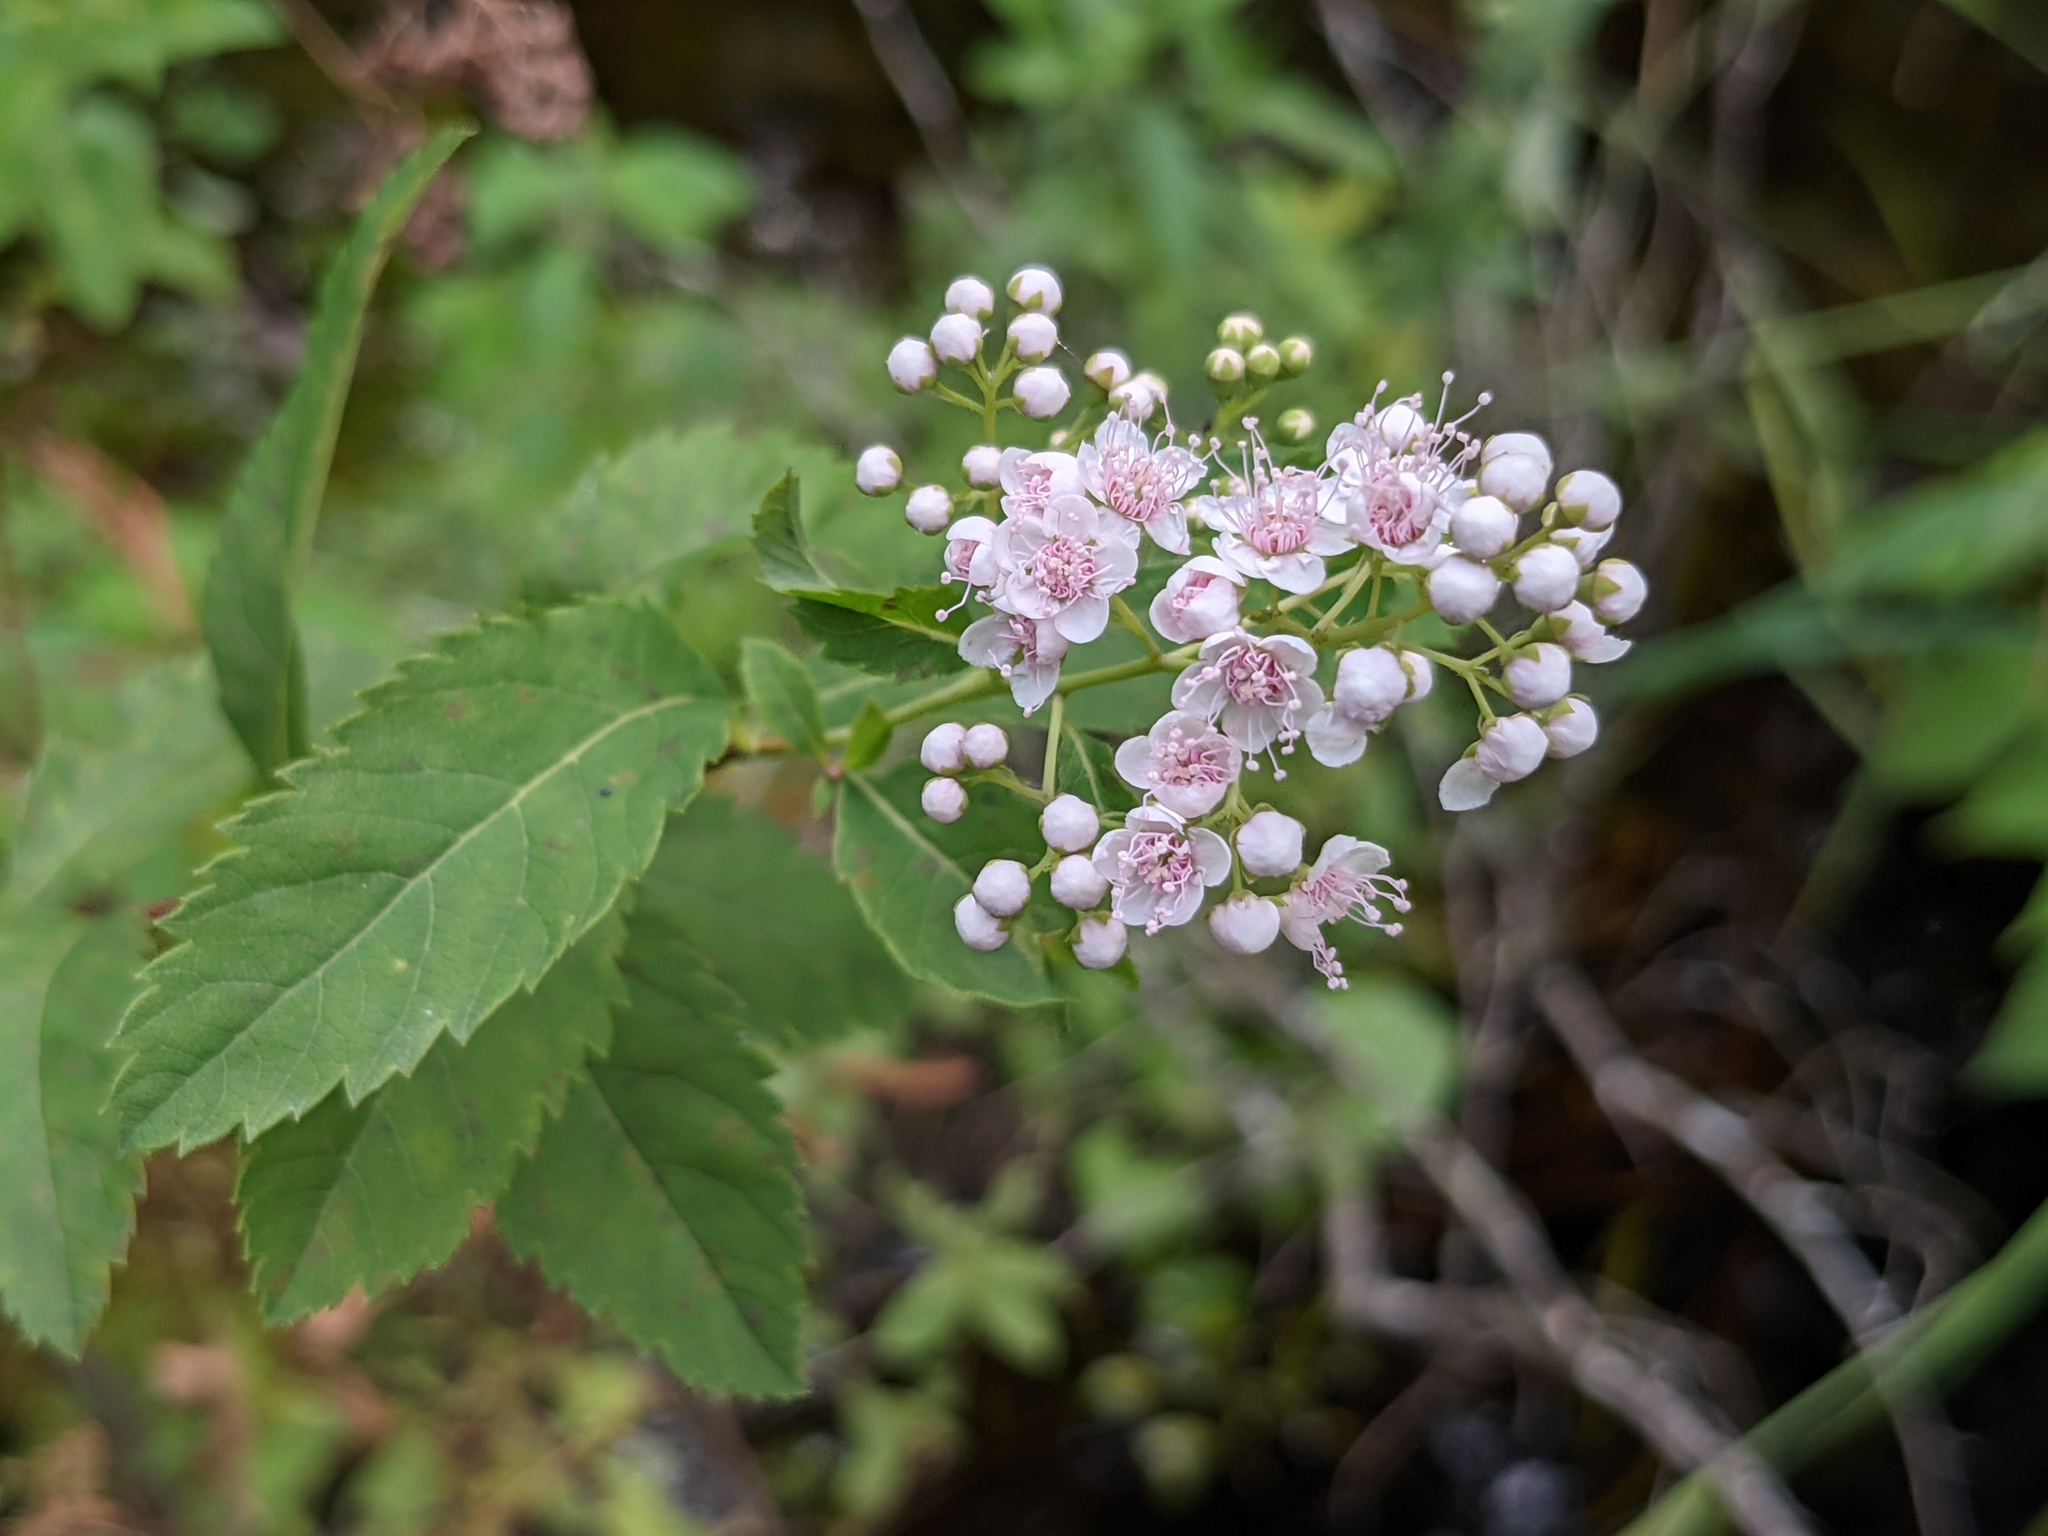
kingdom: Plantae
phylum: Tracheophyta
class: Magnoliopsida
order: Rosales
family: Rosaceae
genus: Spiraea
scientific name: Spiraea alba
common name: Pale bridewort
